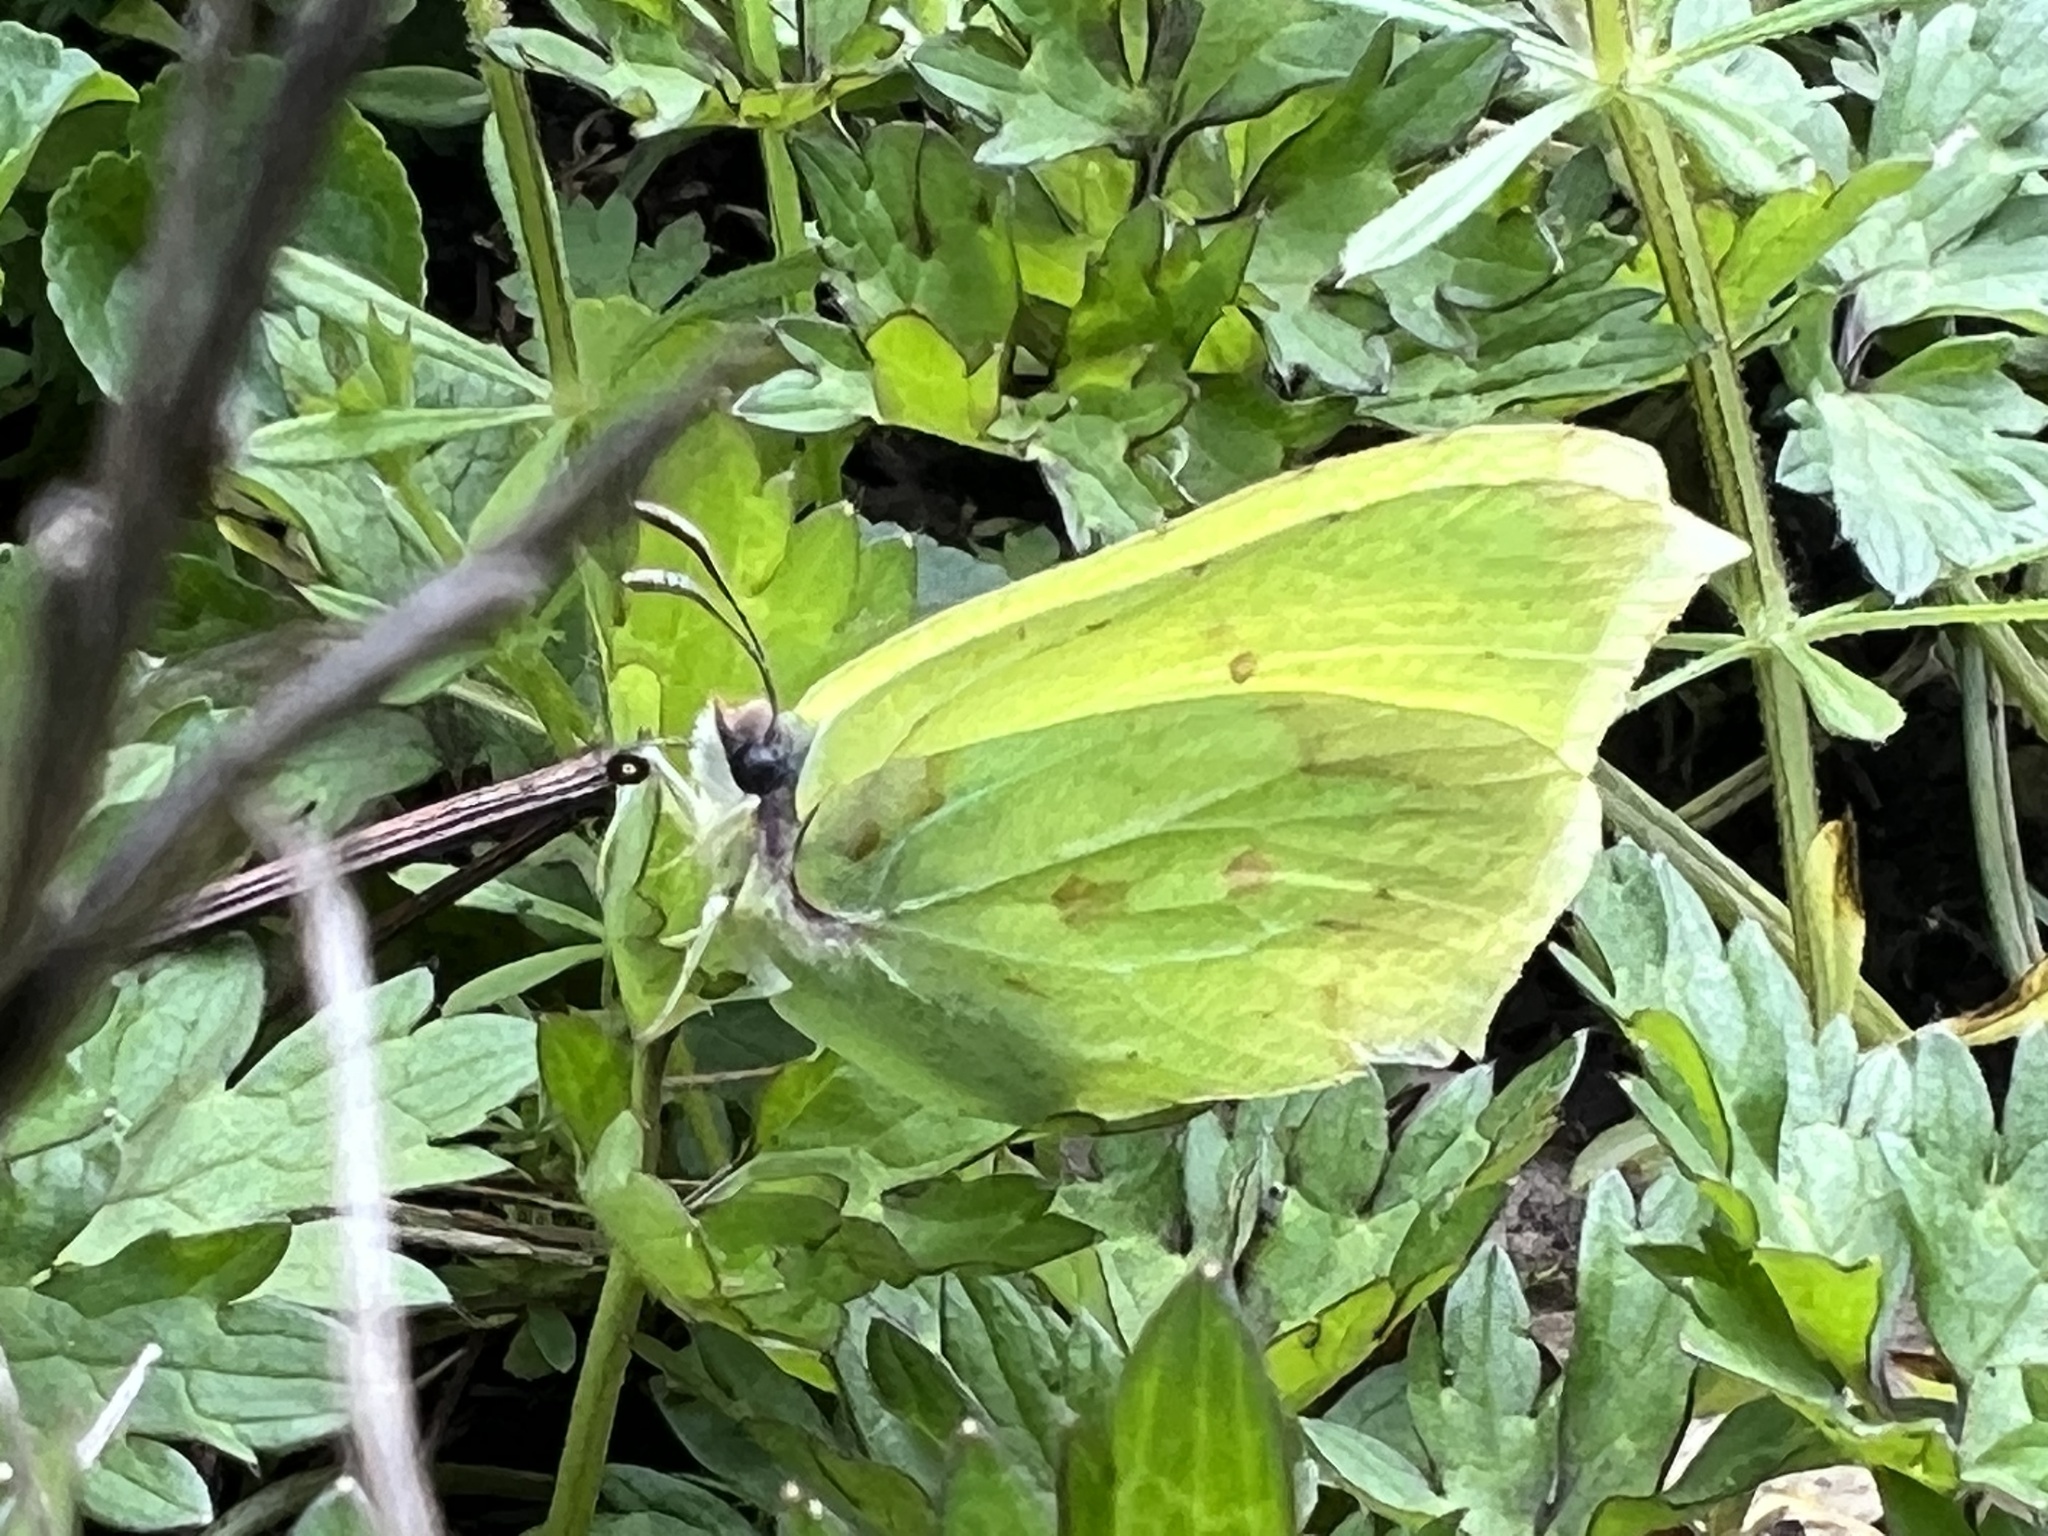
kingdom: Animalia
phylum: Arthropoda
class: Insecta
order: Lepidoptera
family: Pieridae
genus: Gonepteryx
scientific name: Gonepteryx rhamni
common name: Brimstone
